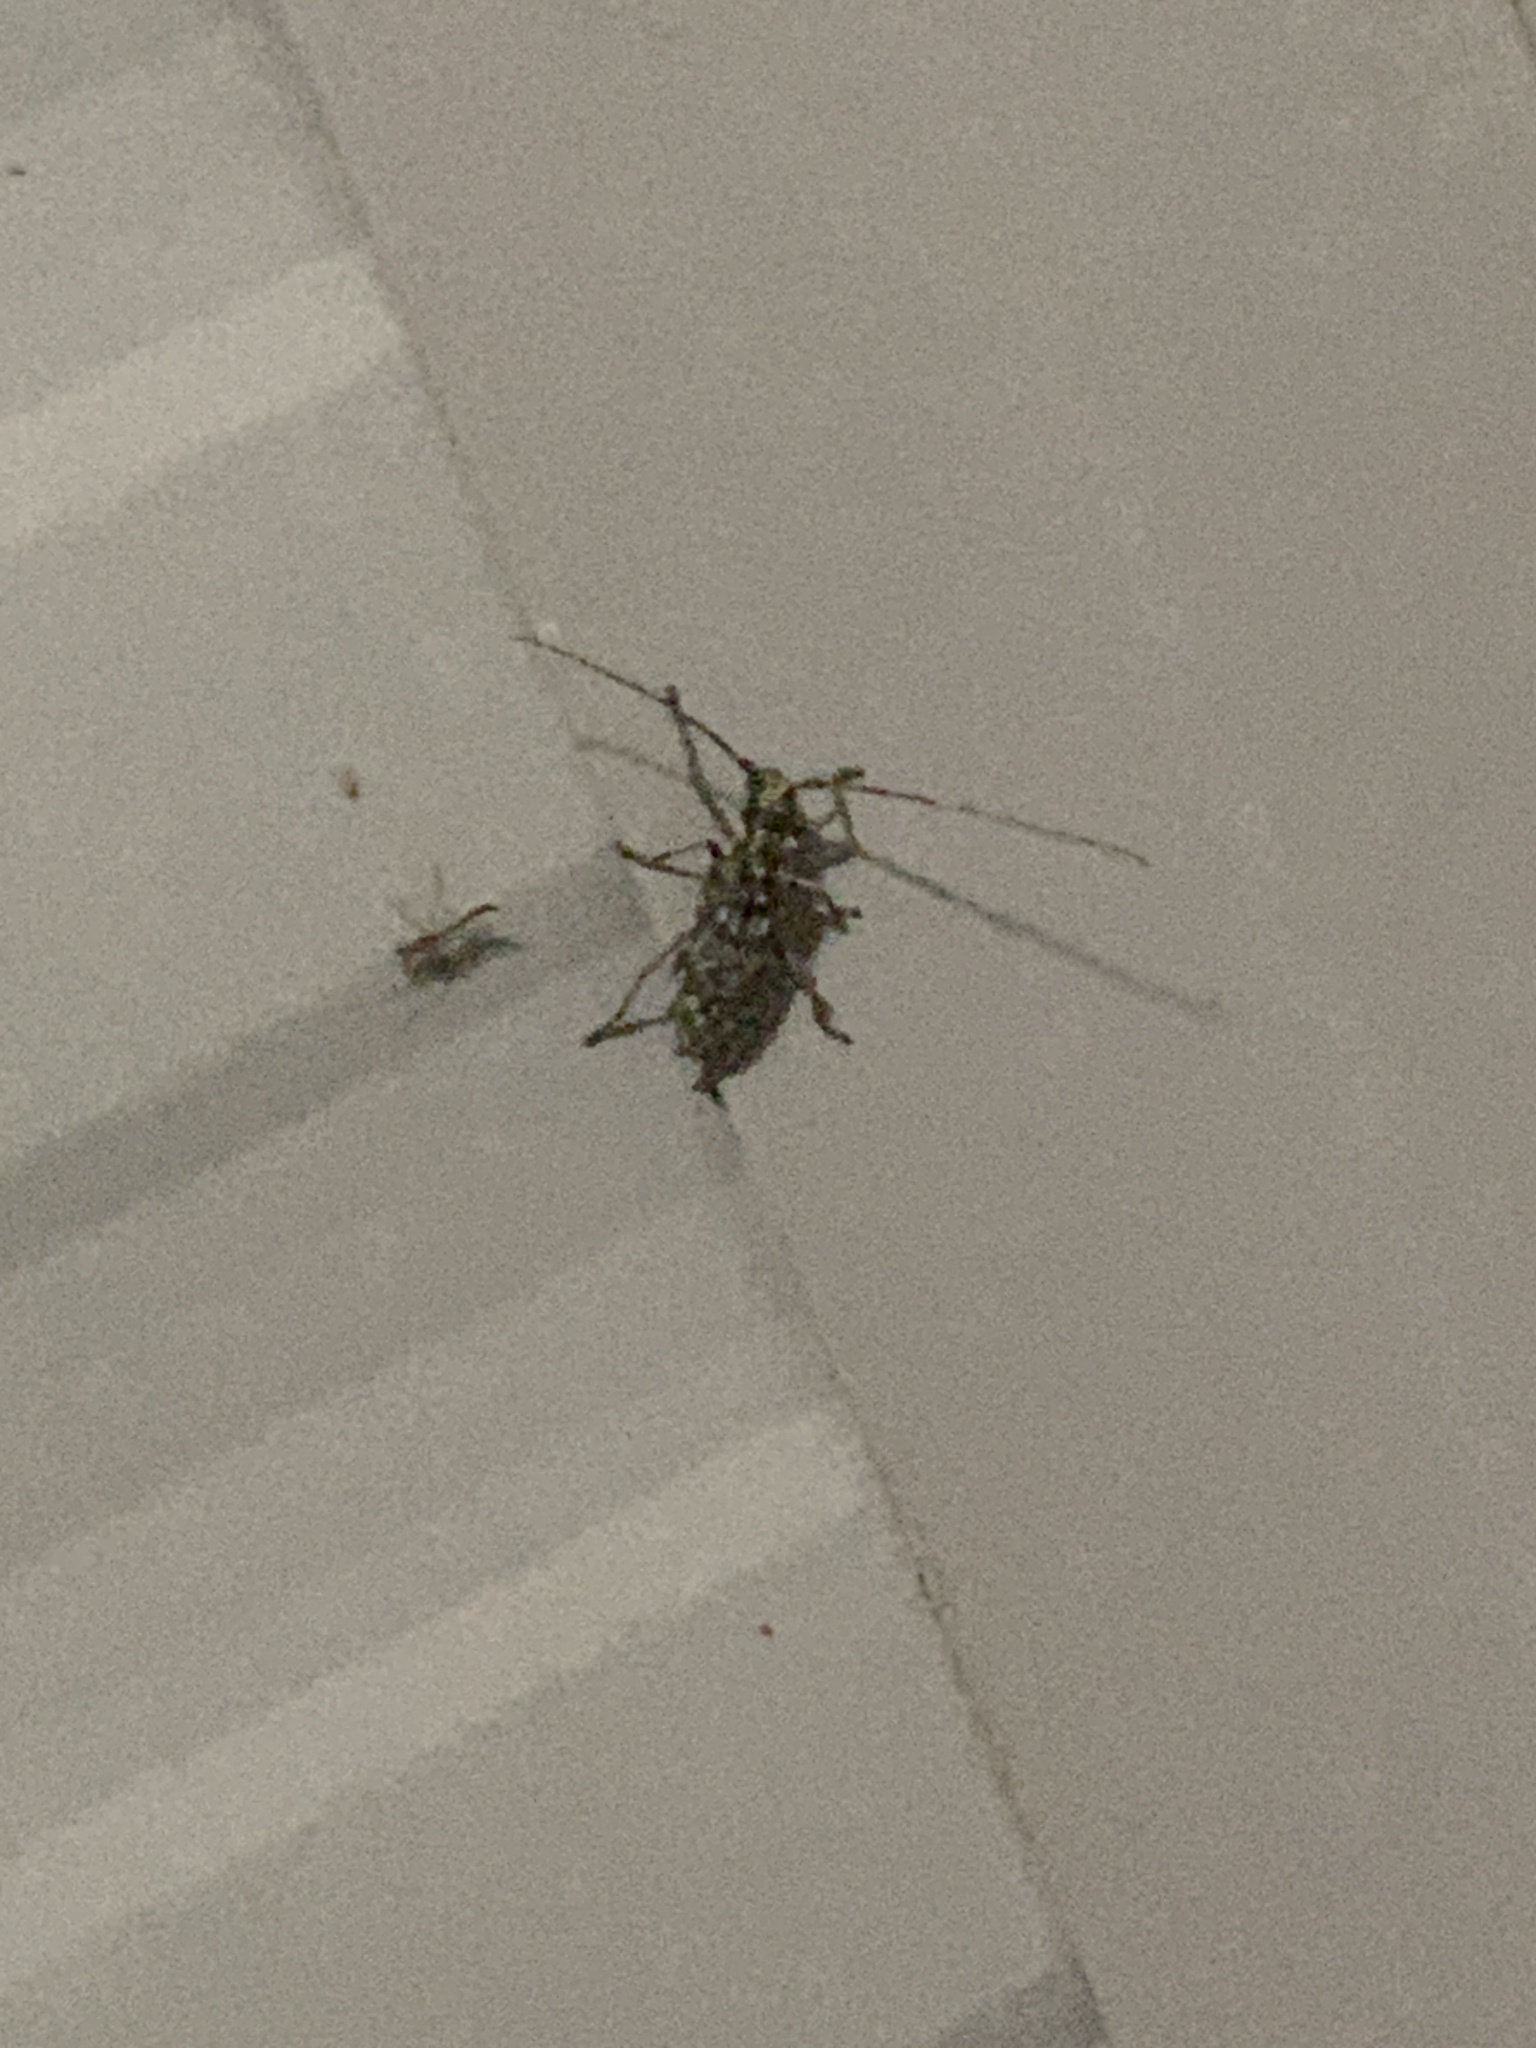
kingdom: Animalia
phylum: Arthropoda
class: Insecta
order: Coleoptera
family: Cerambycidae
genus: Monochamus
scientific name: Monochamus notatus
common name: Northeastern pine sawyer beetle
